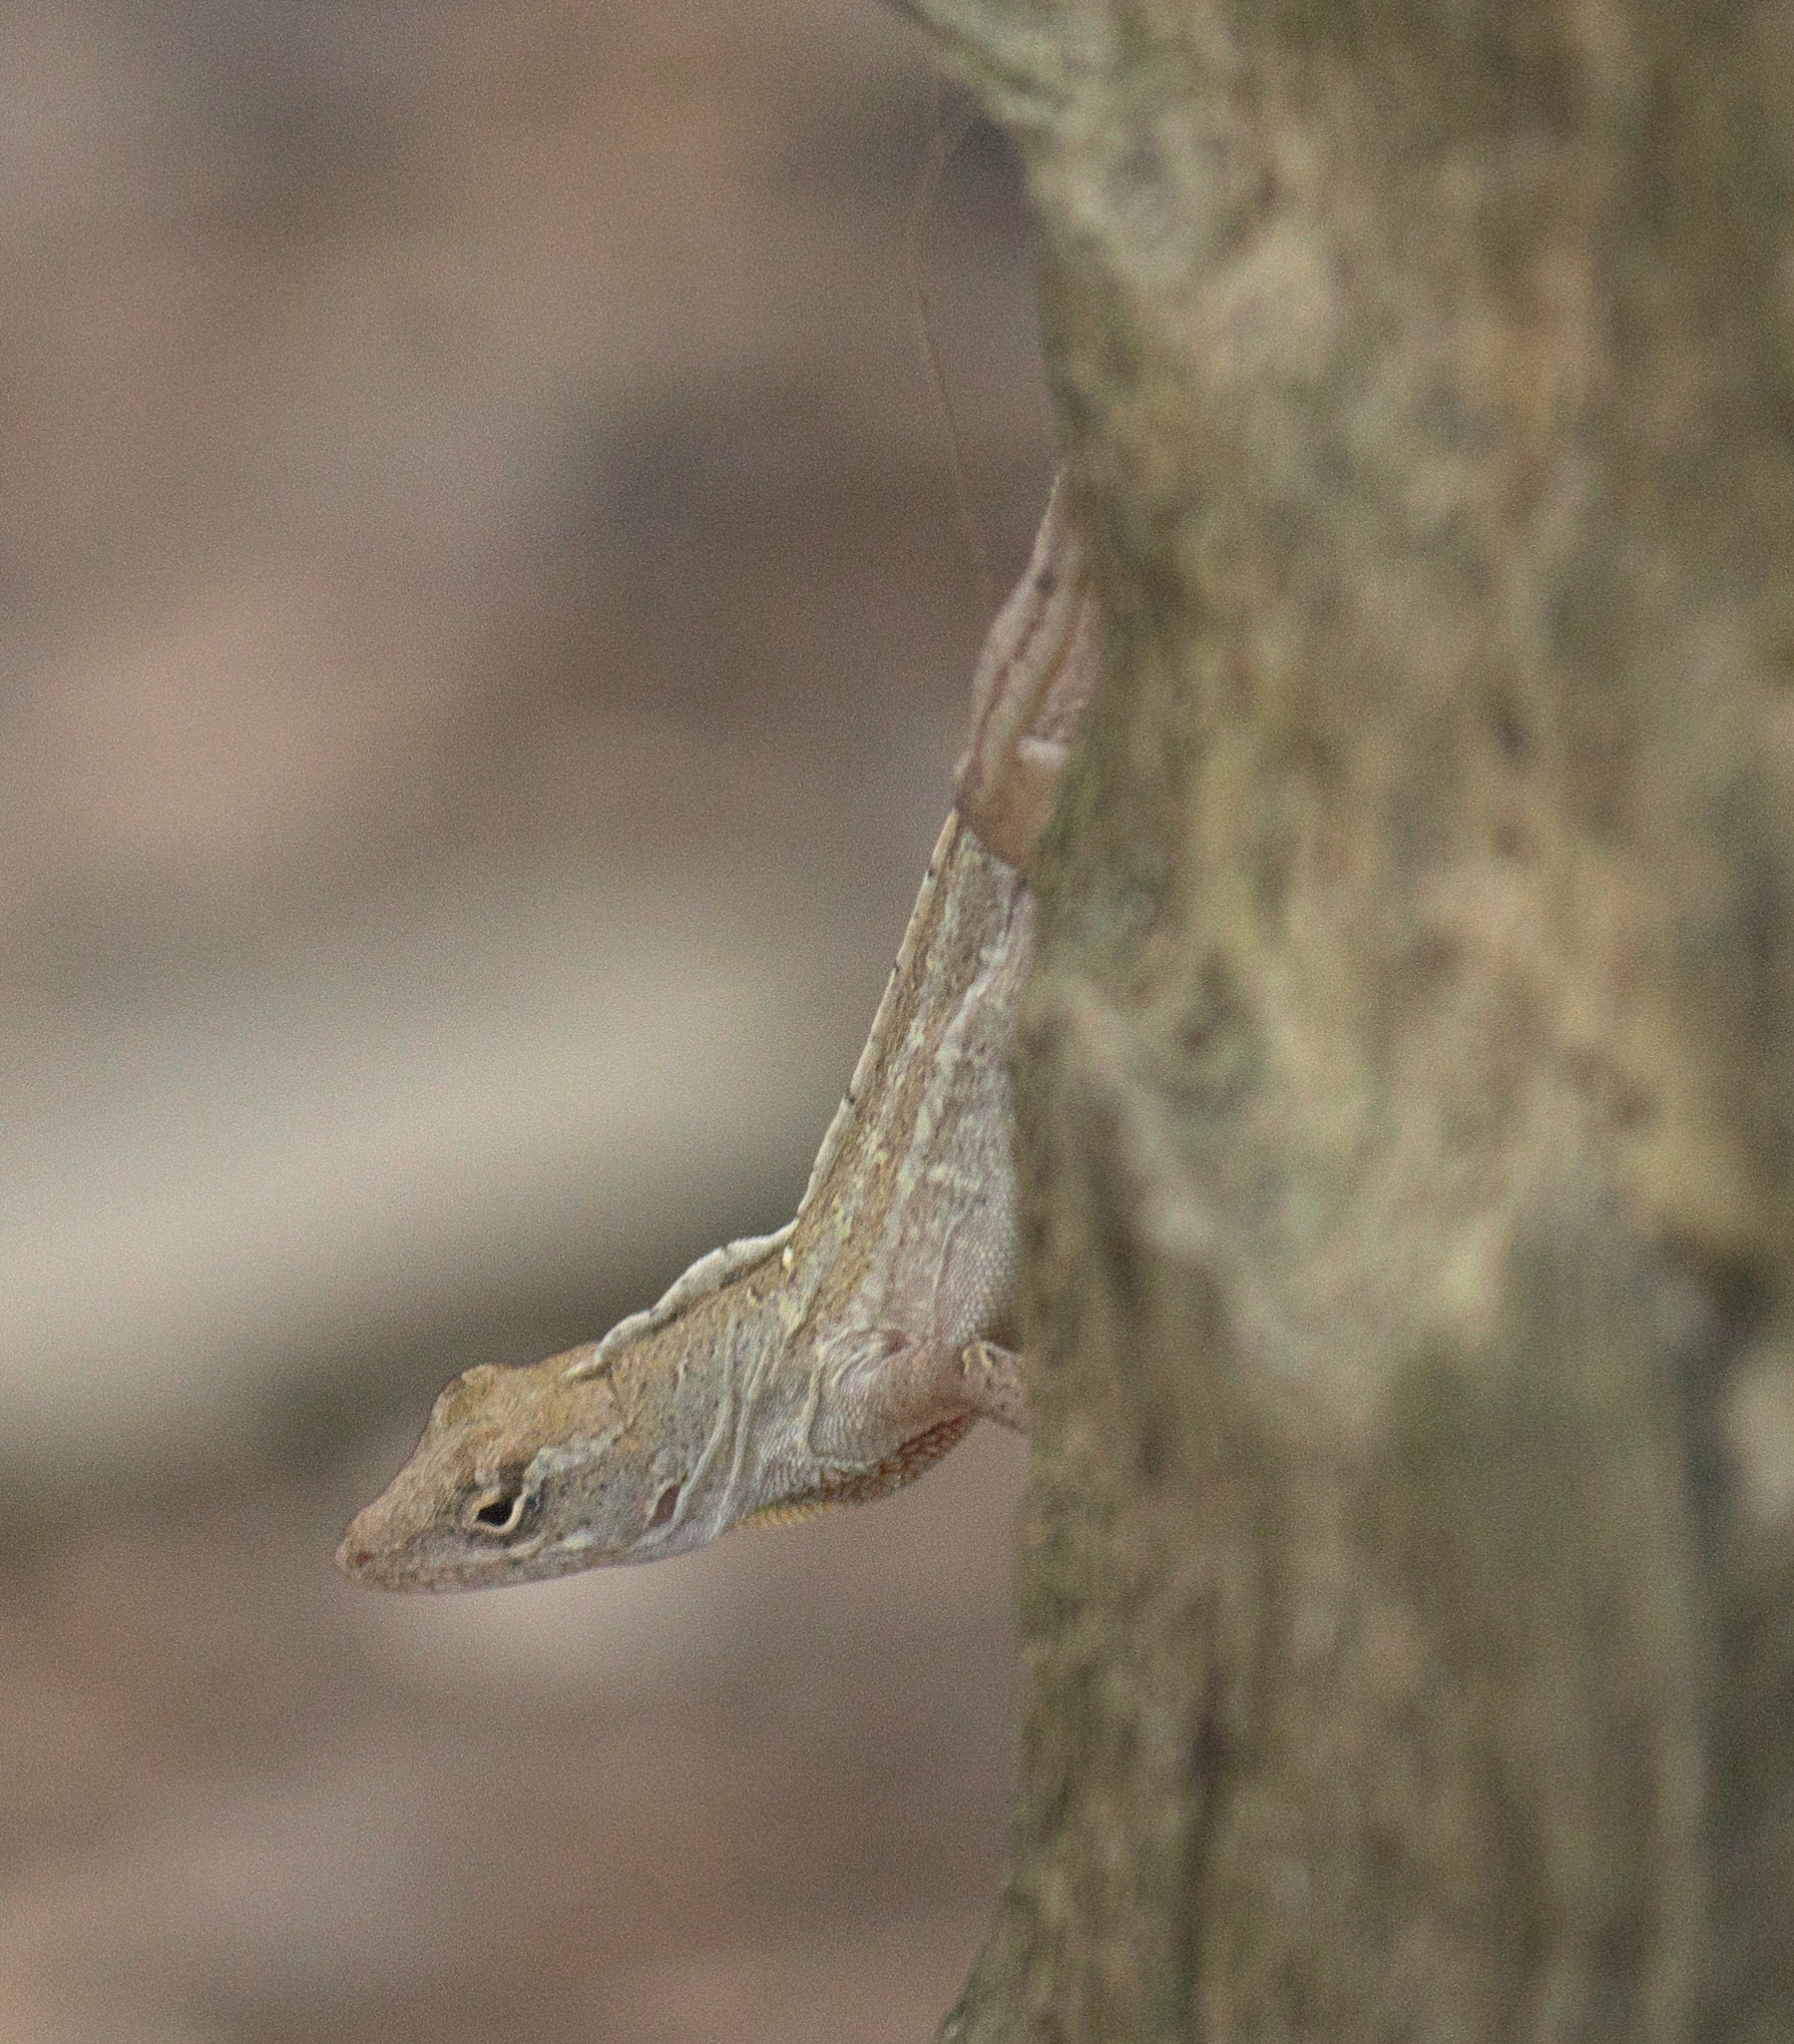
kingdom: Animalia
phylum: Chordata
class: Squamata
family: Dactyloidae
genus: Anolis
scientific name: Anolis sagrei
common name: Brown anole
